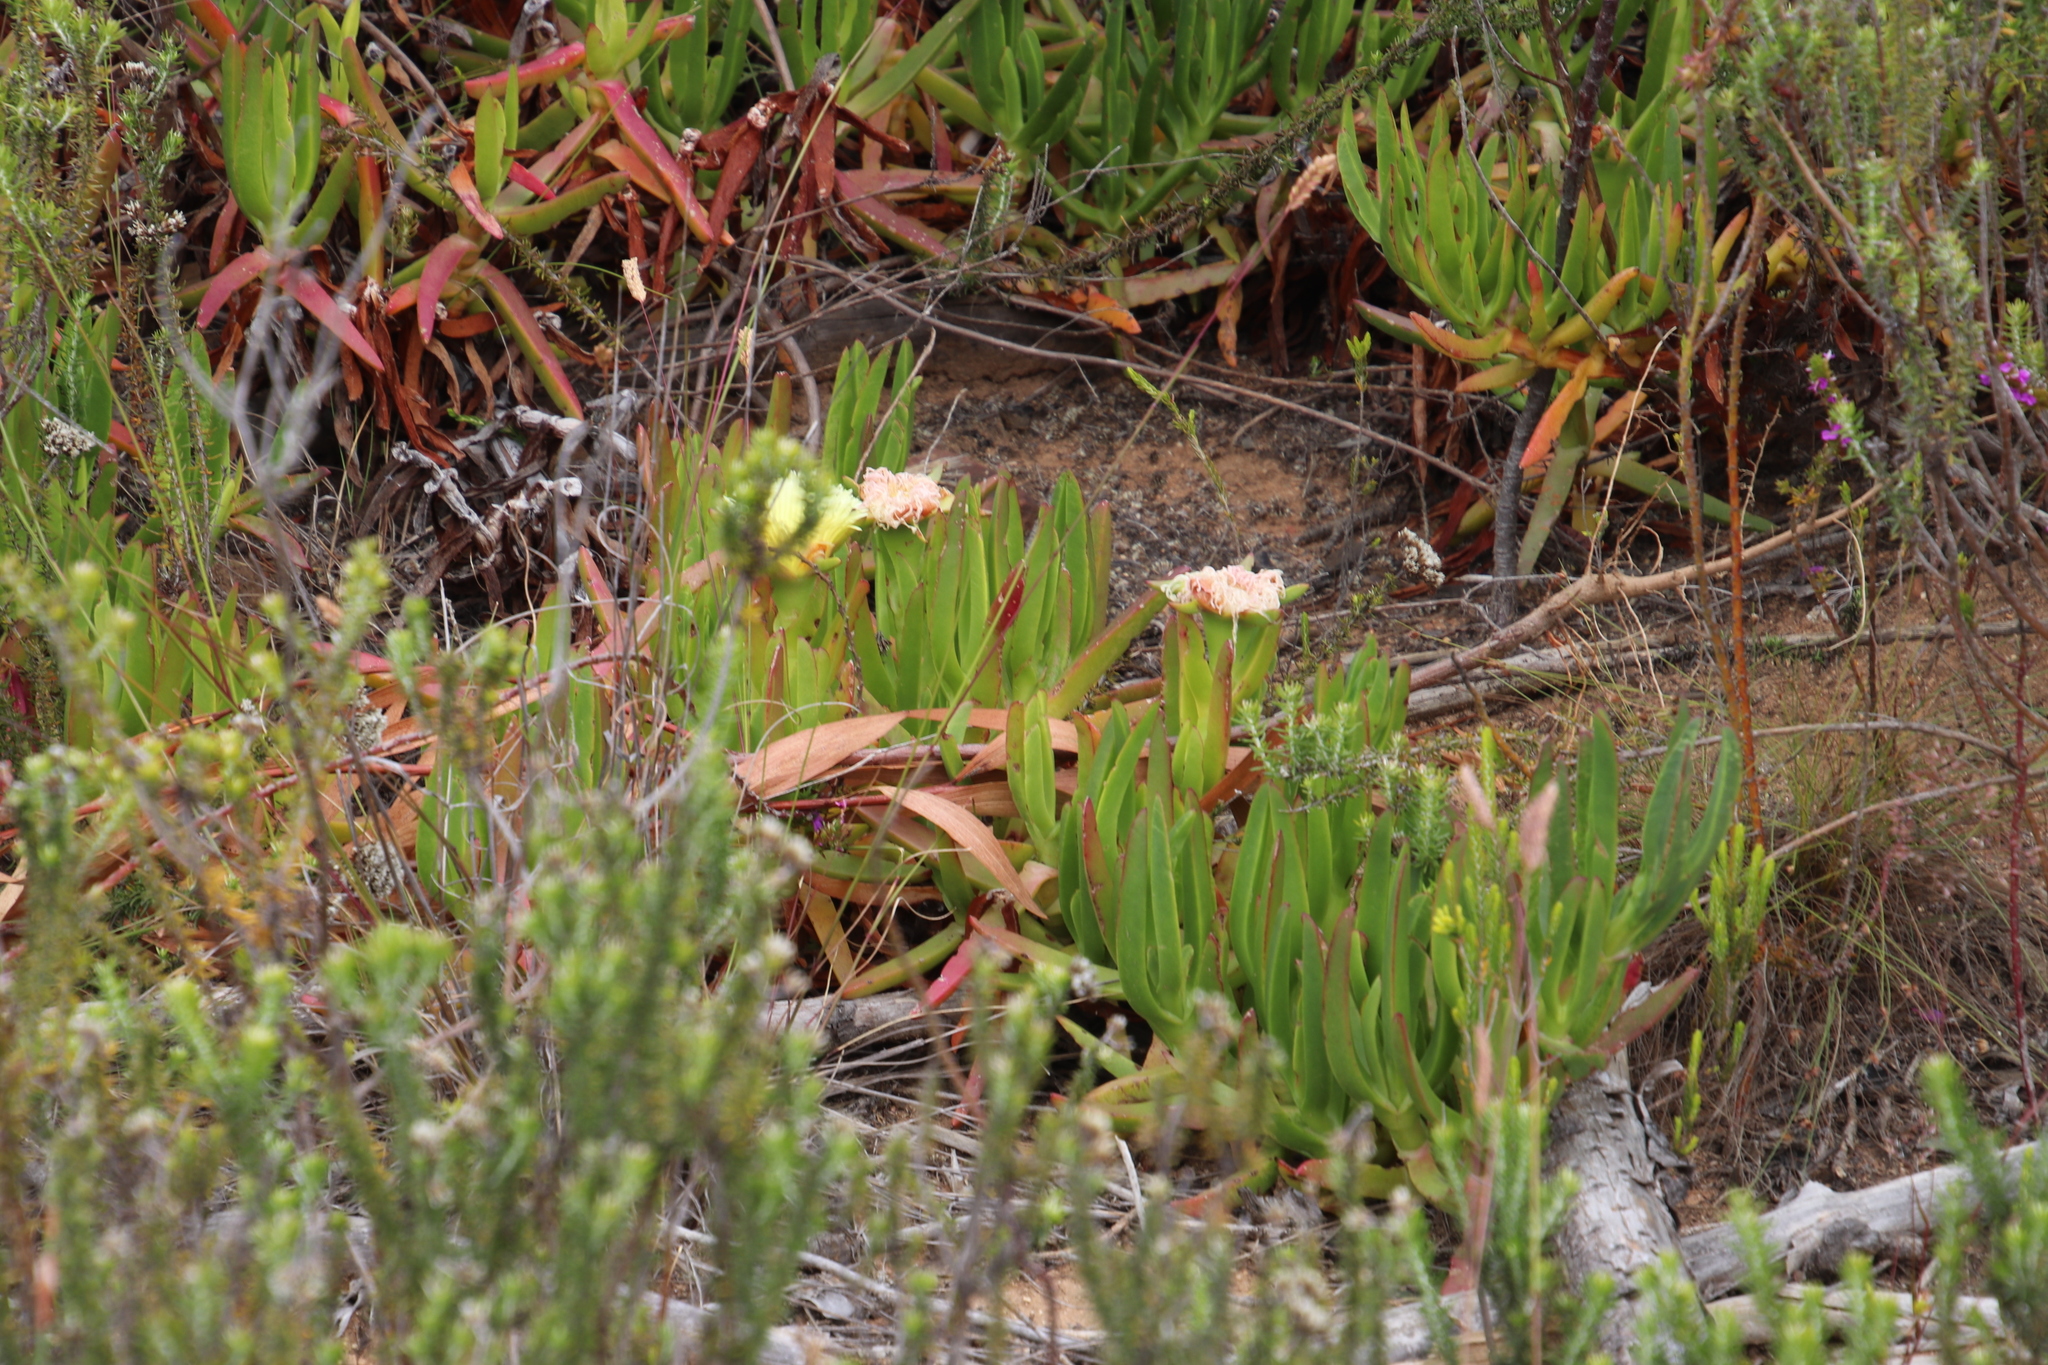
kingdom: Plantae
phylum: Tracheophyta
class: Magnoliopsida
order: Caryophyllales
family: Aizoaceae
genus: Carpobrotus
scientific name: Carpobrotus edulis
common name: Hottentot-fig
